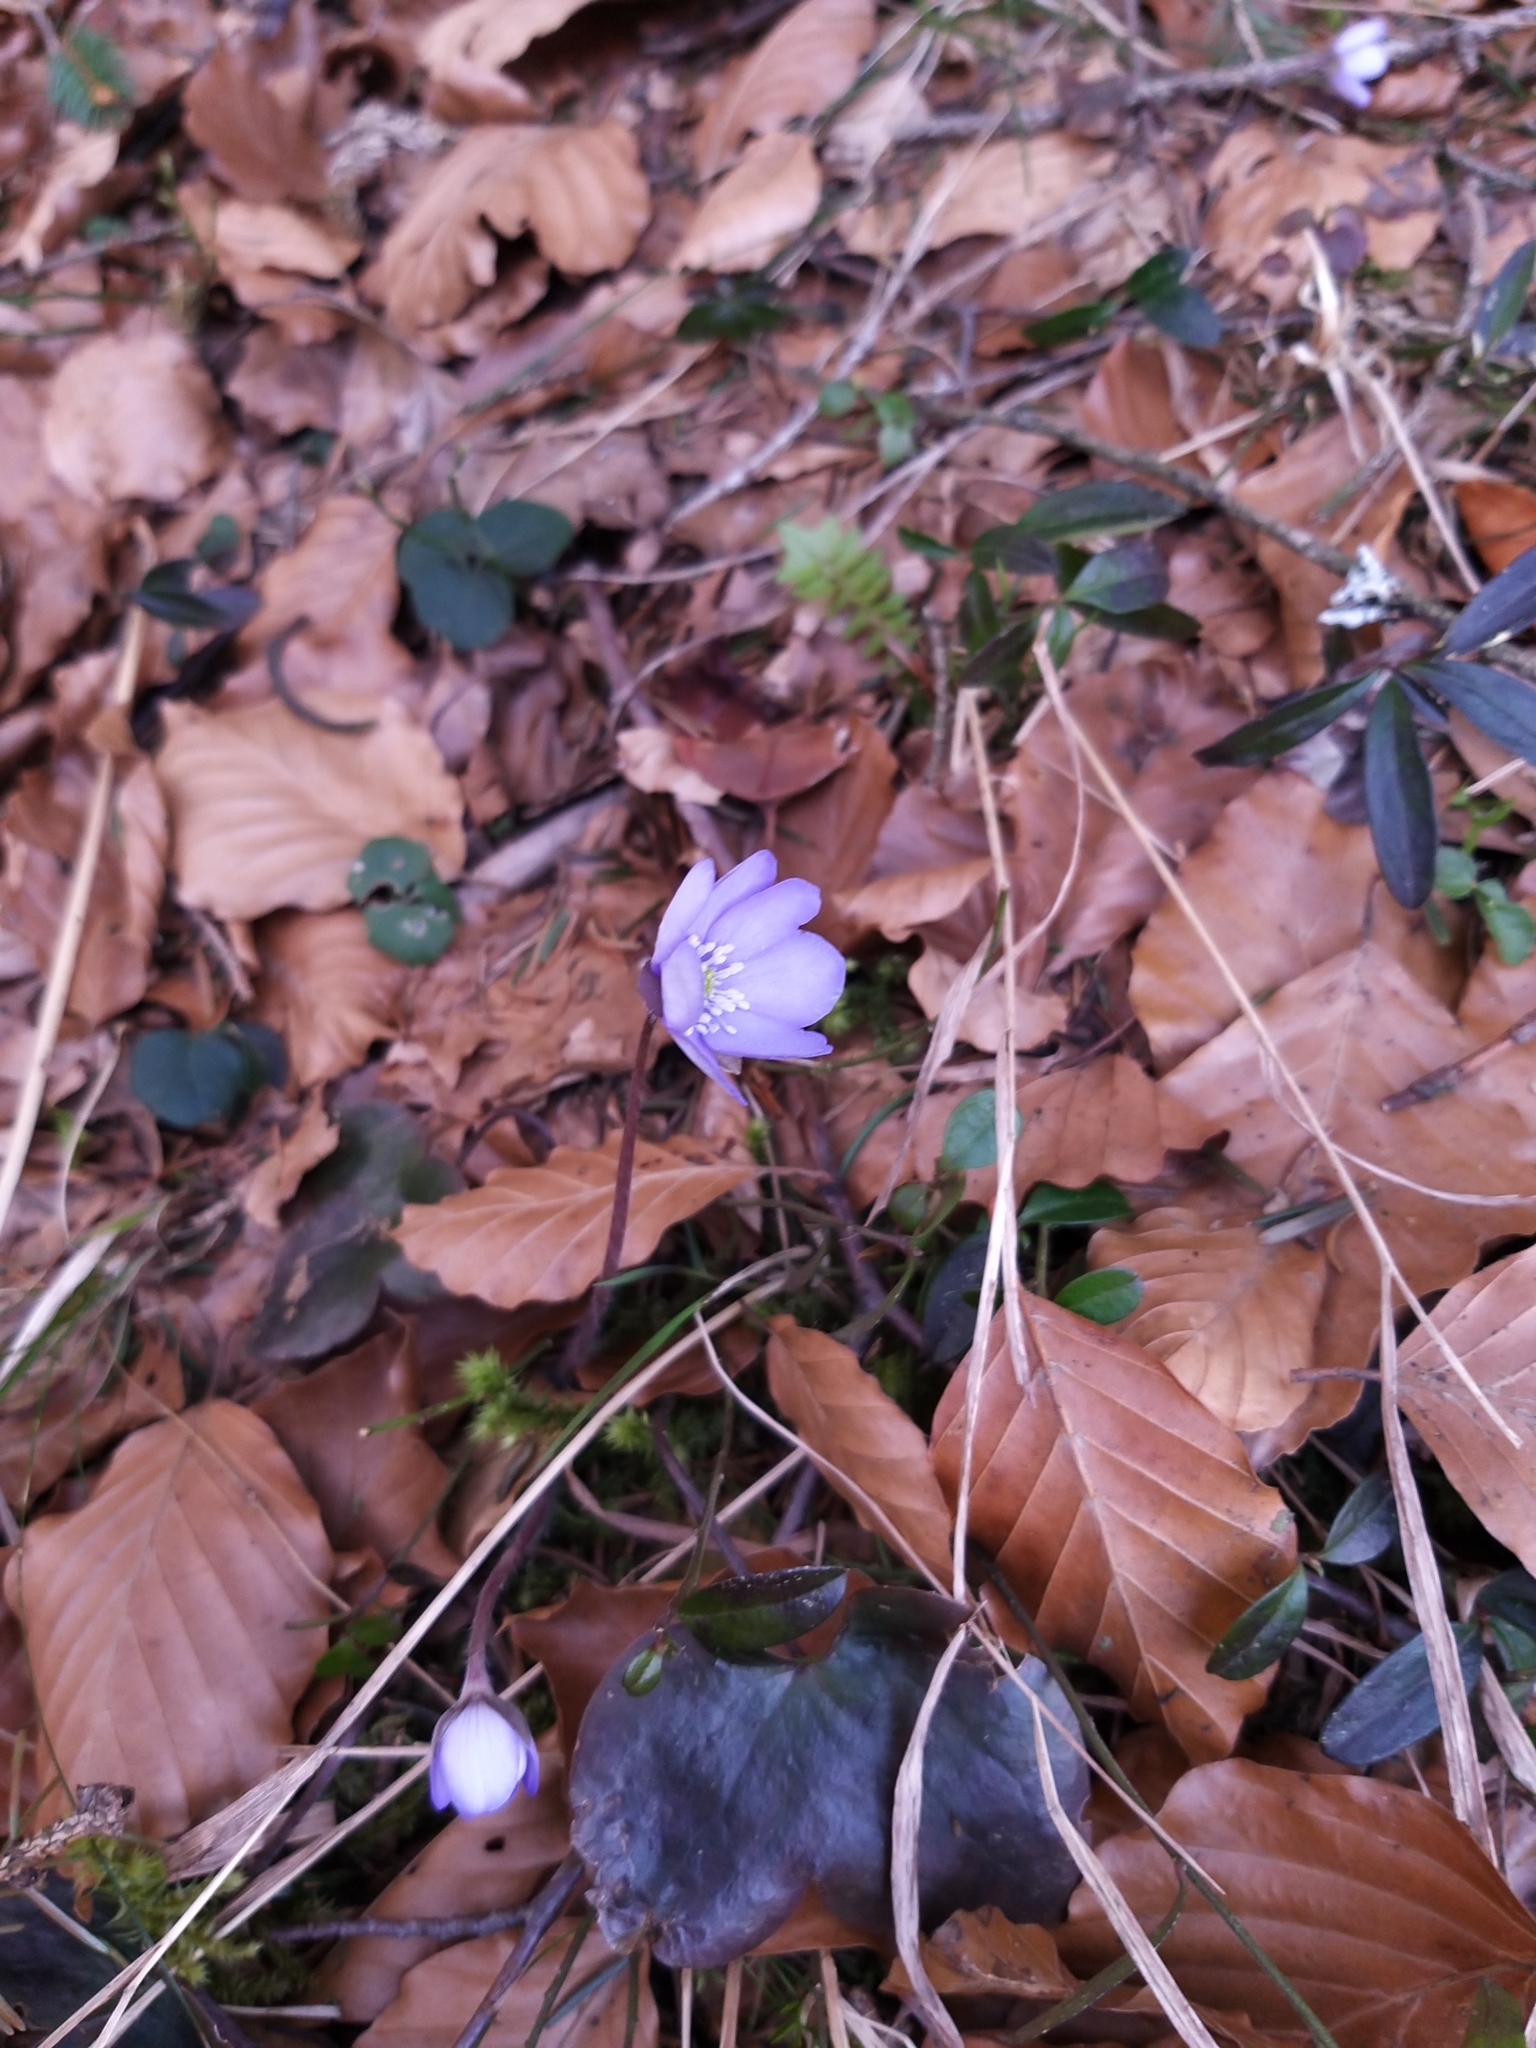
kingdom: Plantae
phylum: Tracheophyta
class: Magnoliopsida
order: Ranunculales
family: Ranunculaceae
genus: Hepatica
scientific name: Hepatica nobilis
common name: Liverleaf
